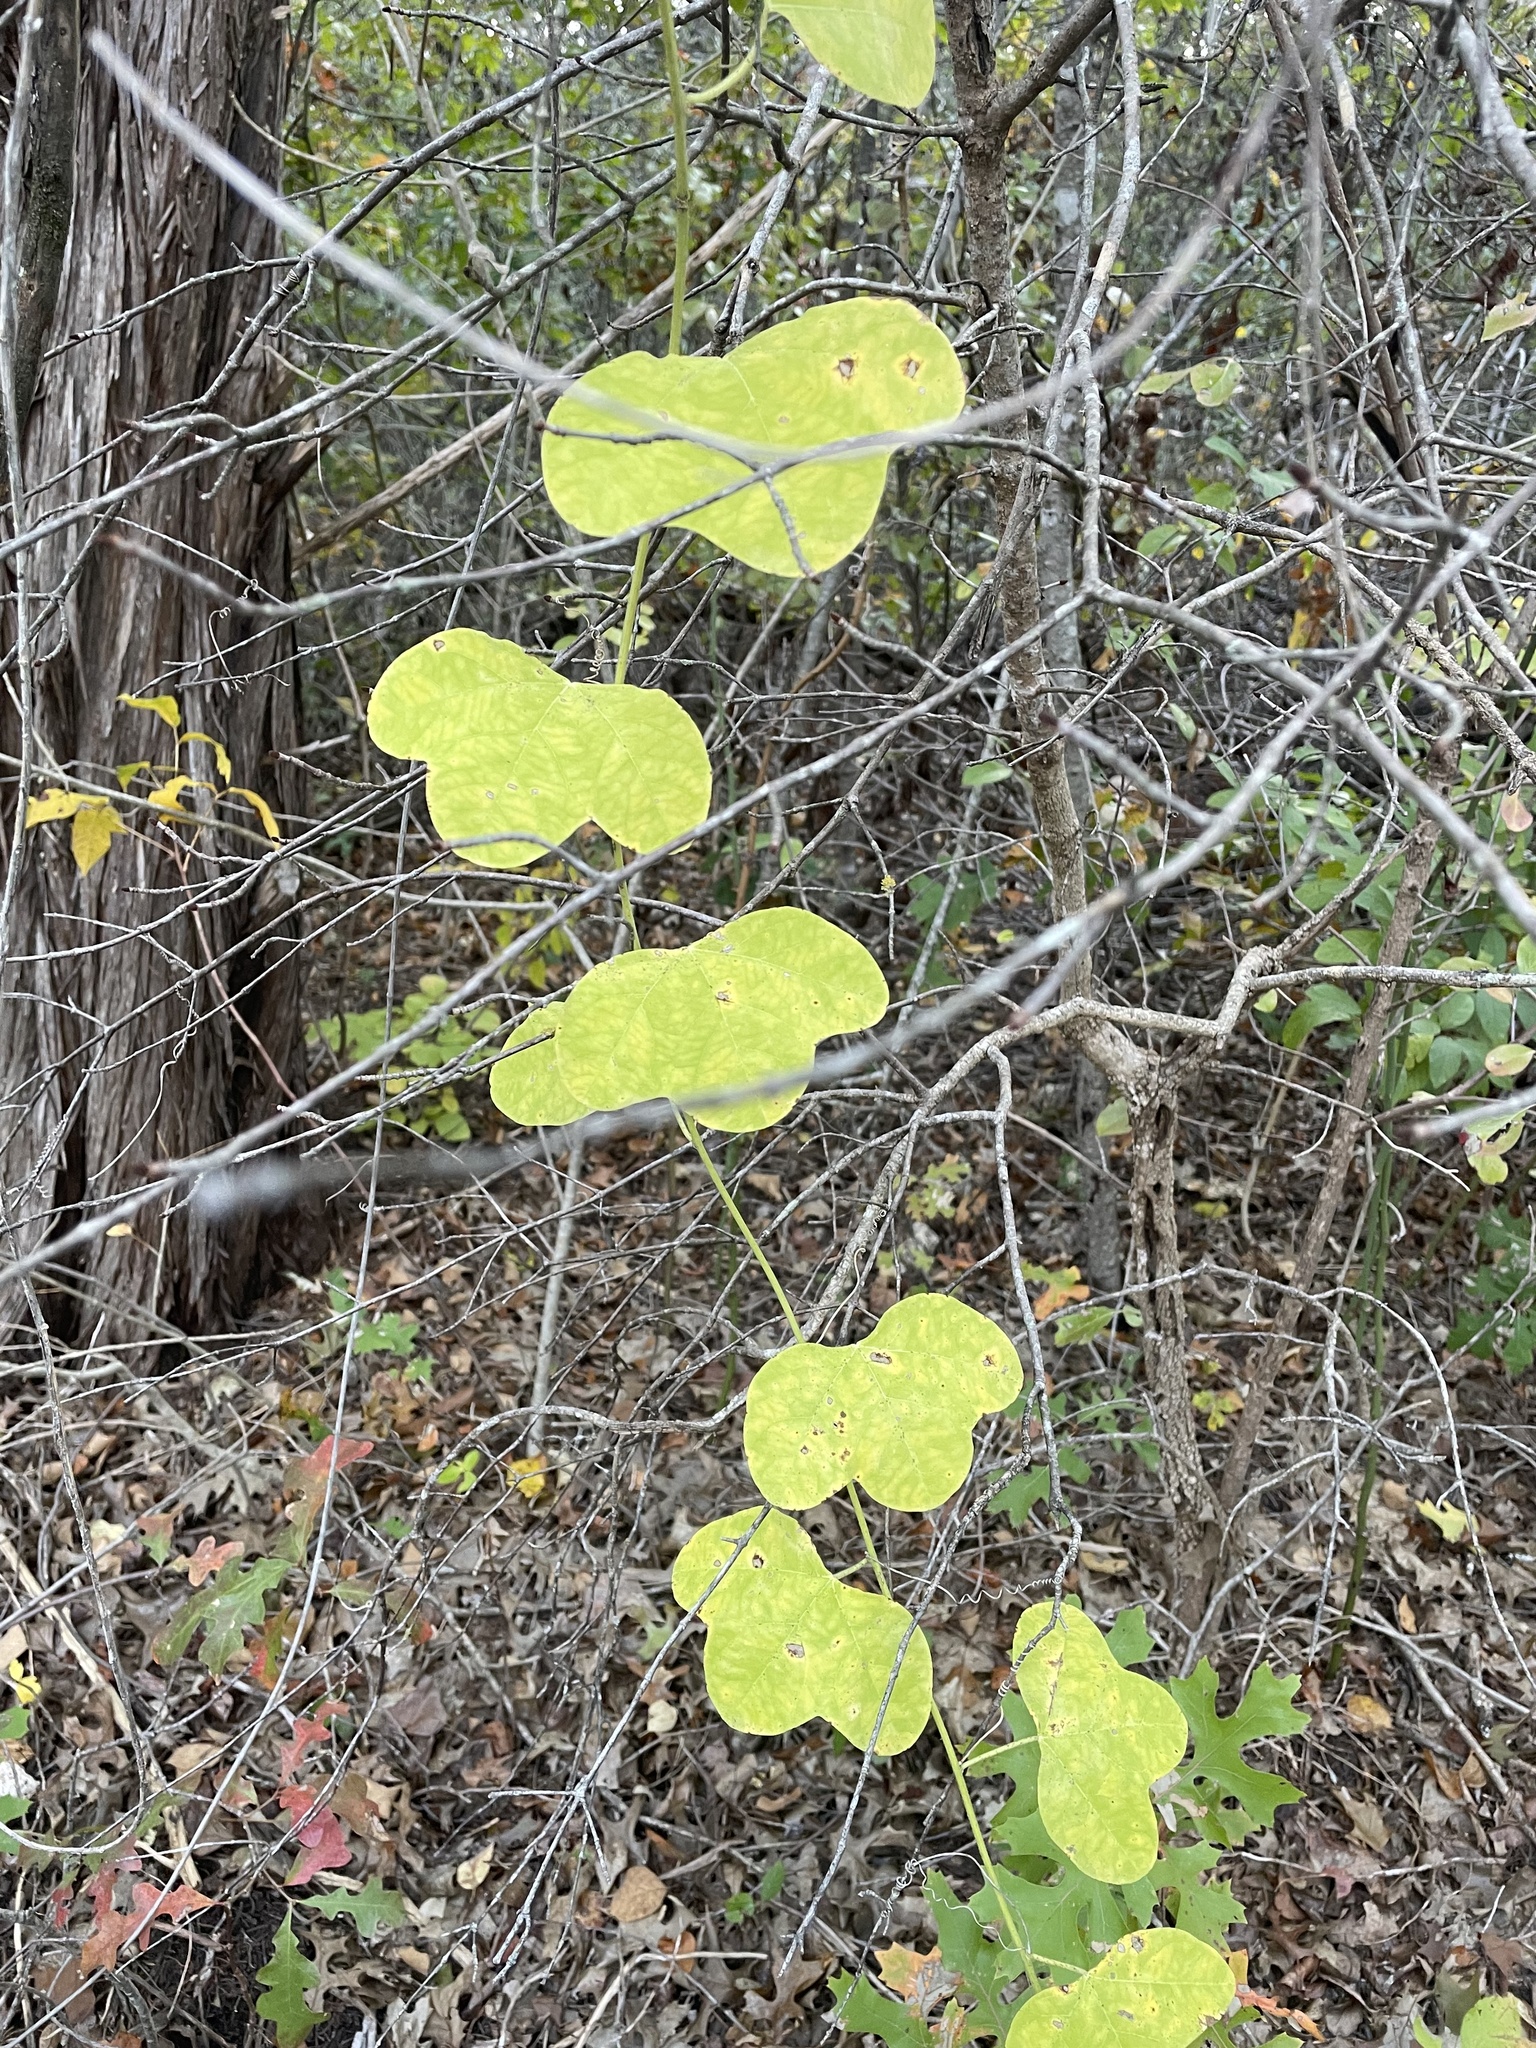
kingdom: Plantae
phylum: Tracheophyta
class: Magnoliopsida
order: Malpighiales
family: Passifloraceae
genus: Passiflora
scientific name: Passiflora lutea
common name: Yellow passionflower
